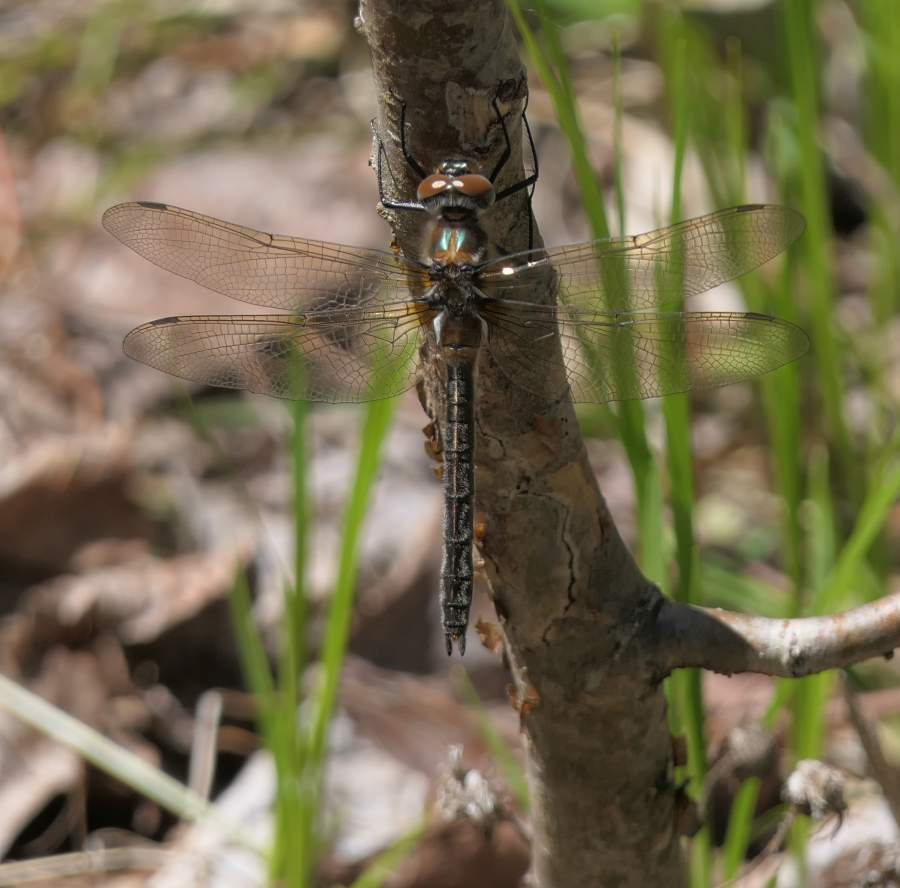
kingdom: Animalia
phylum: Arthropoda
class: Insecta
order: Odonata
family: Corduliidae
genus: Cordulia
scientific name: Cordulia shurtleffii
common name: American emerald
